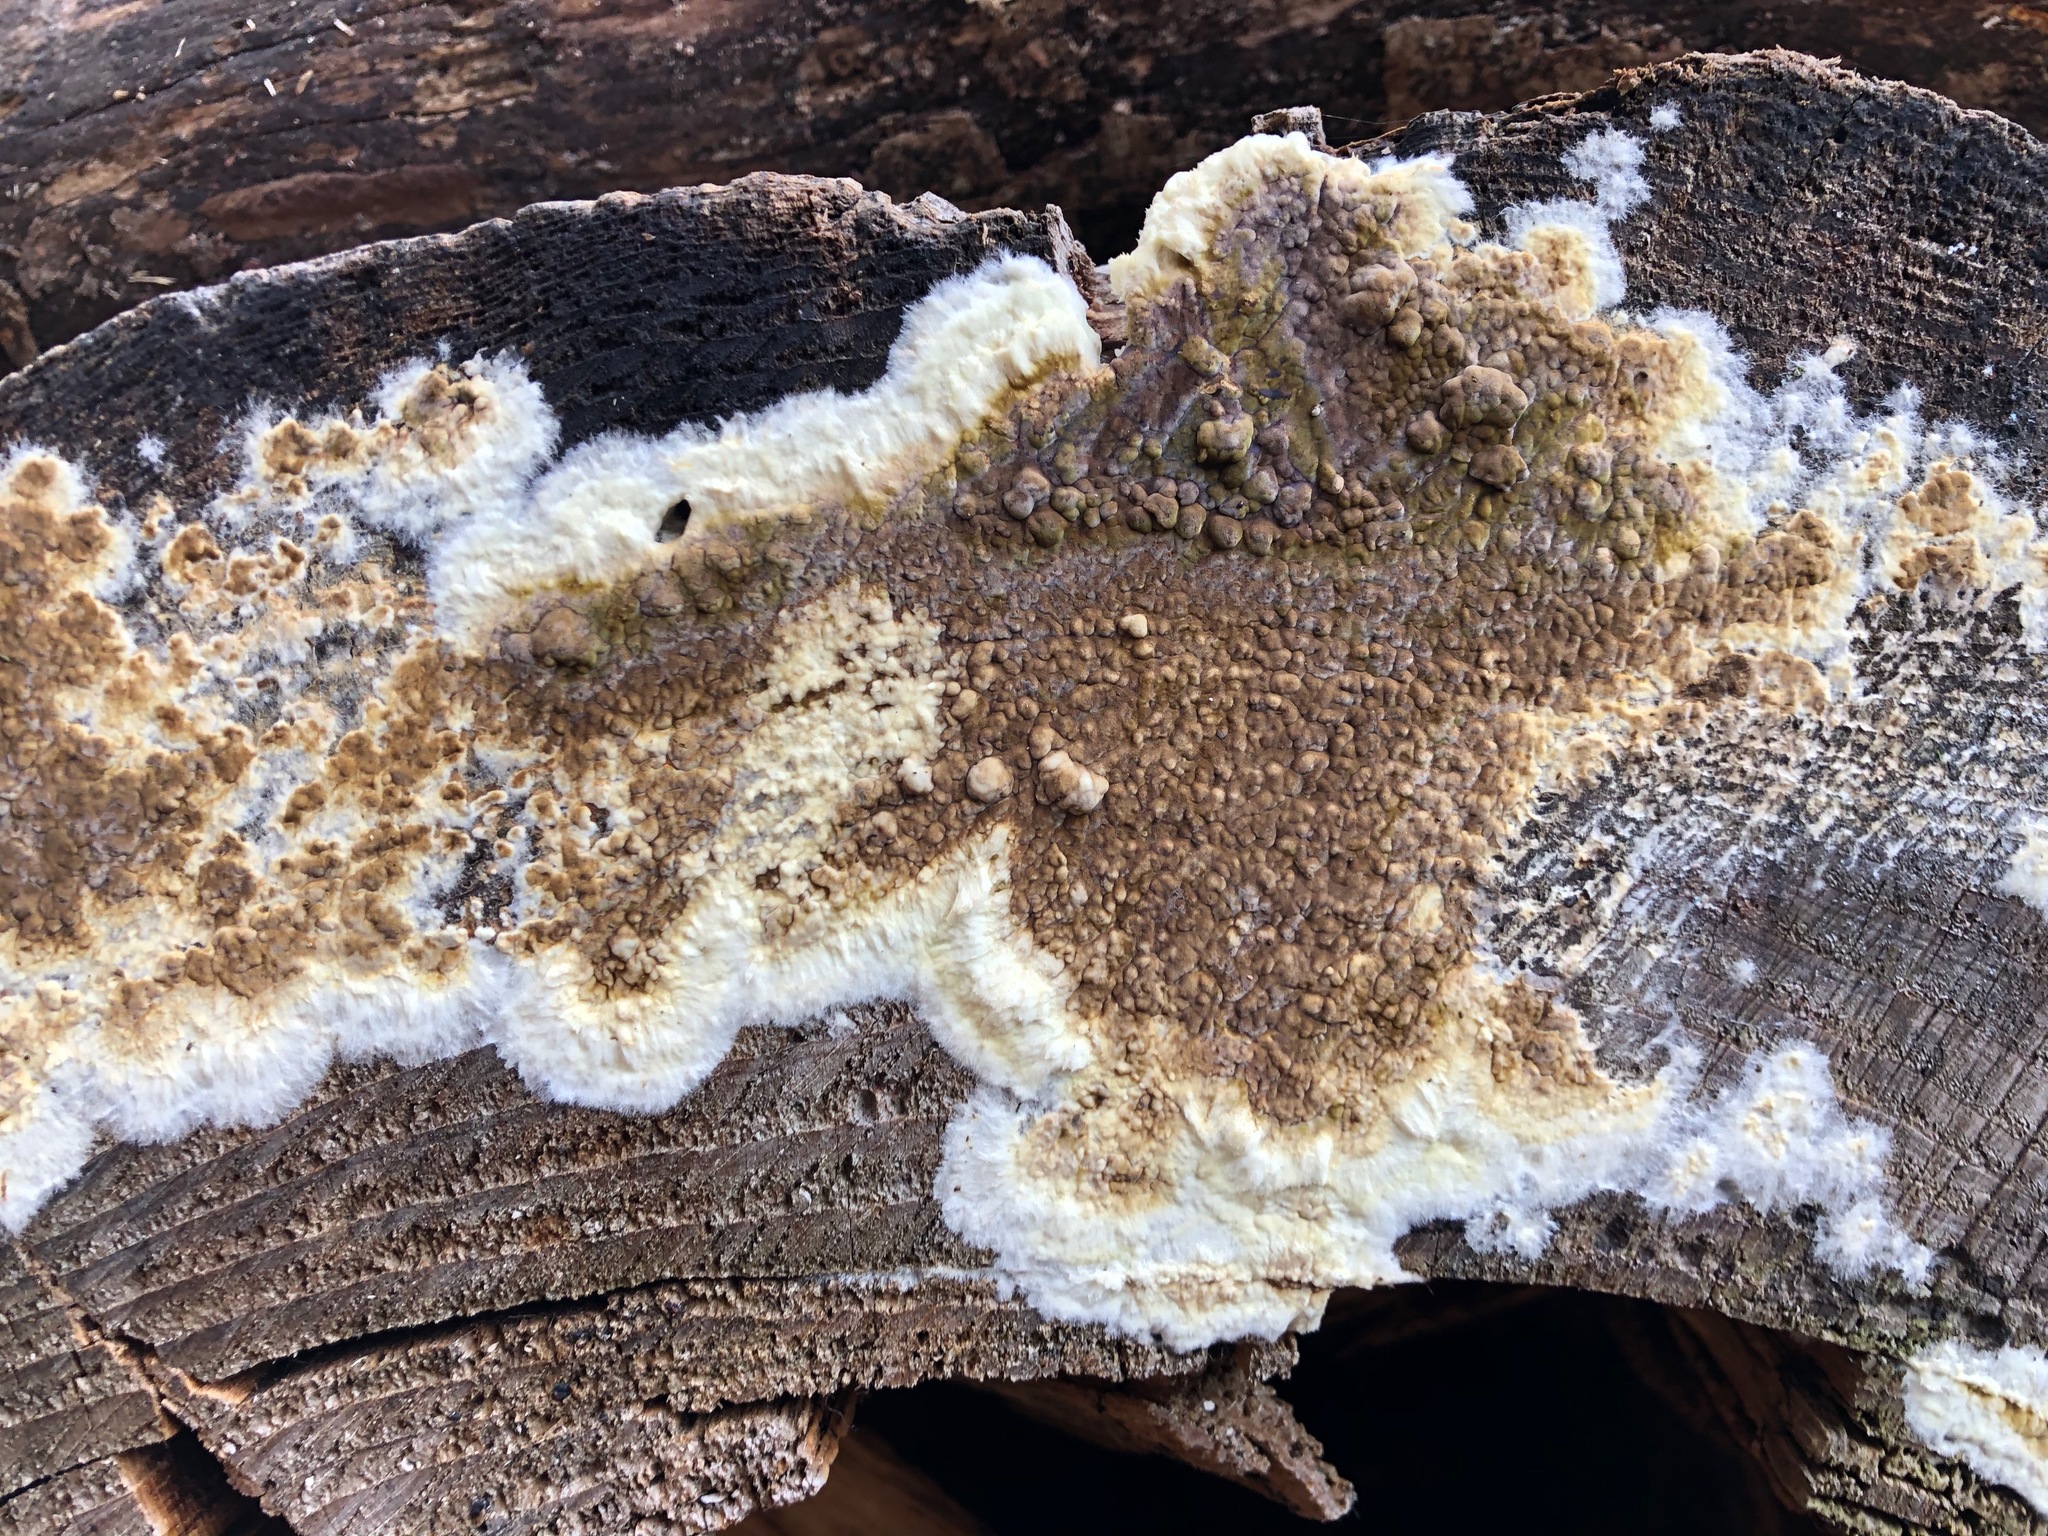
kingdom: Fungi
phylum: Basidiomycota
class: Agaricomycetes
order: Boletales
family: Coniophoraceae
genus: Coniophora
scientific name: Coniophora puteana
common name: Cellar fungus
